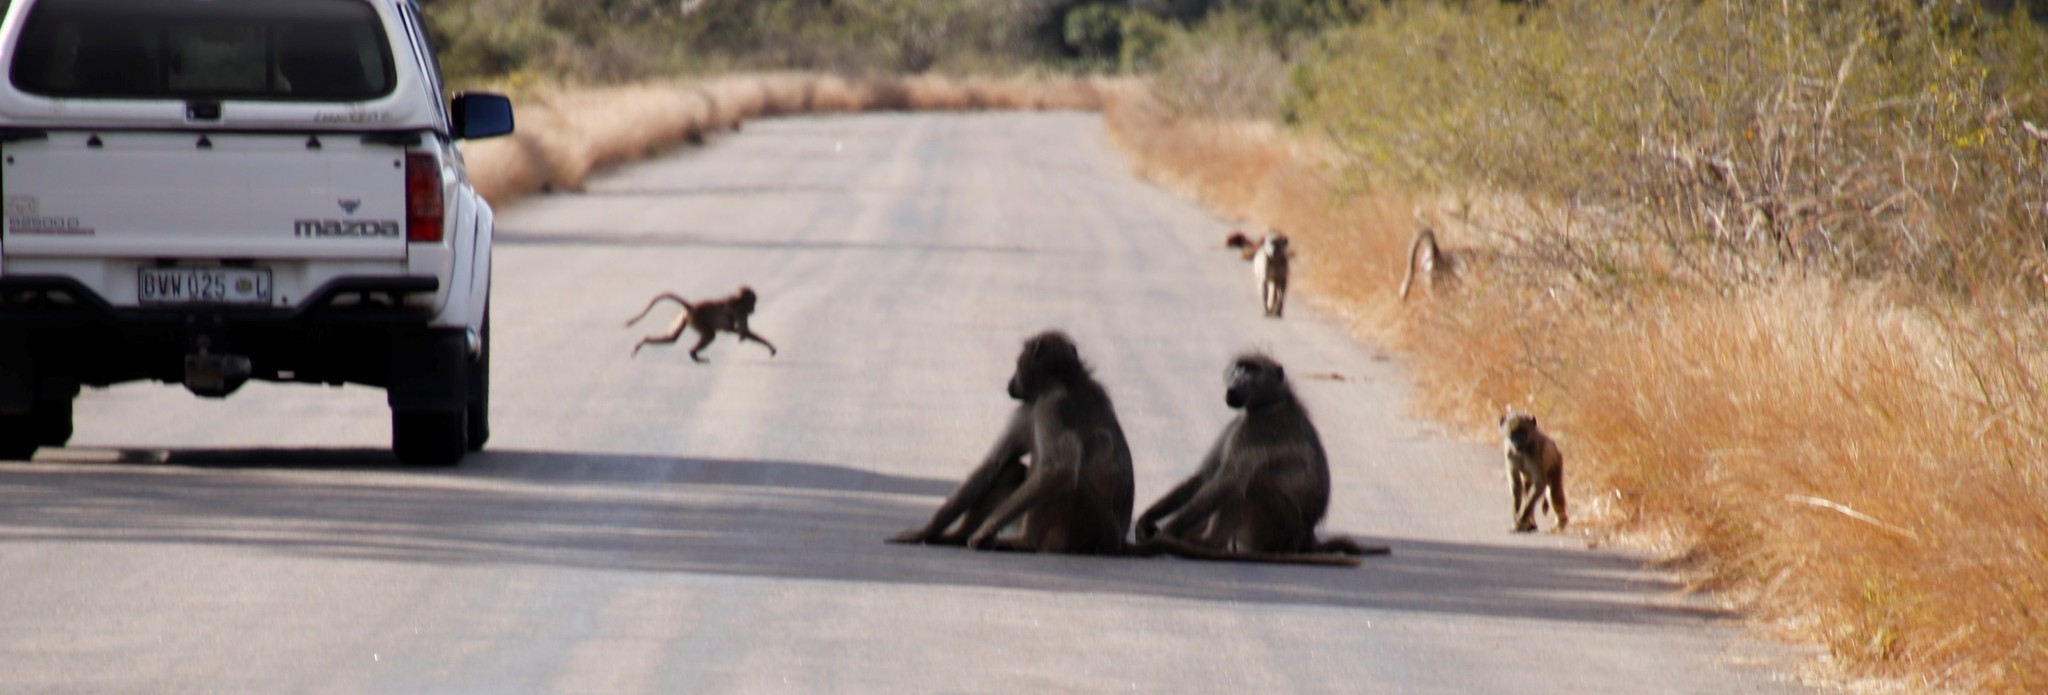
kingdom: Animalia
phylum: Chordata
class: Mammalia
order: Primates
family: Cercopithecidae
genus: Papio
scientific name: Papio ursinus
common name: Chacma baboon
